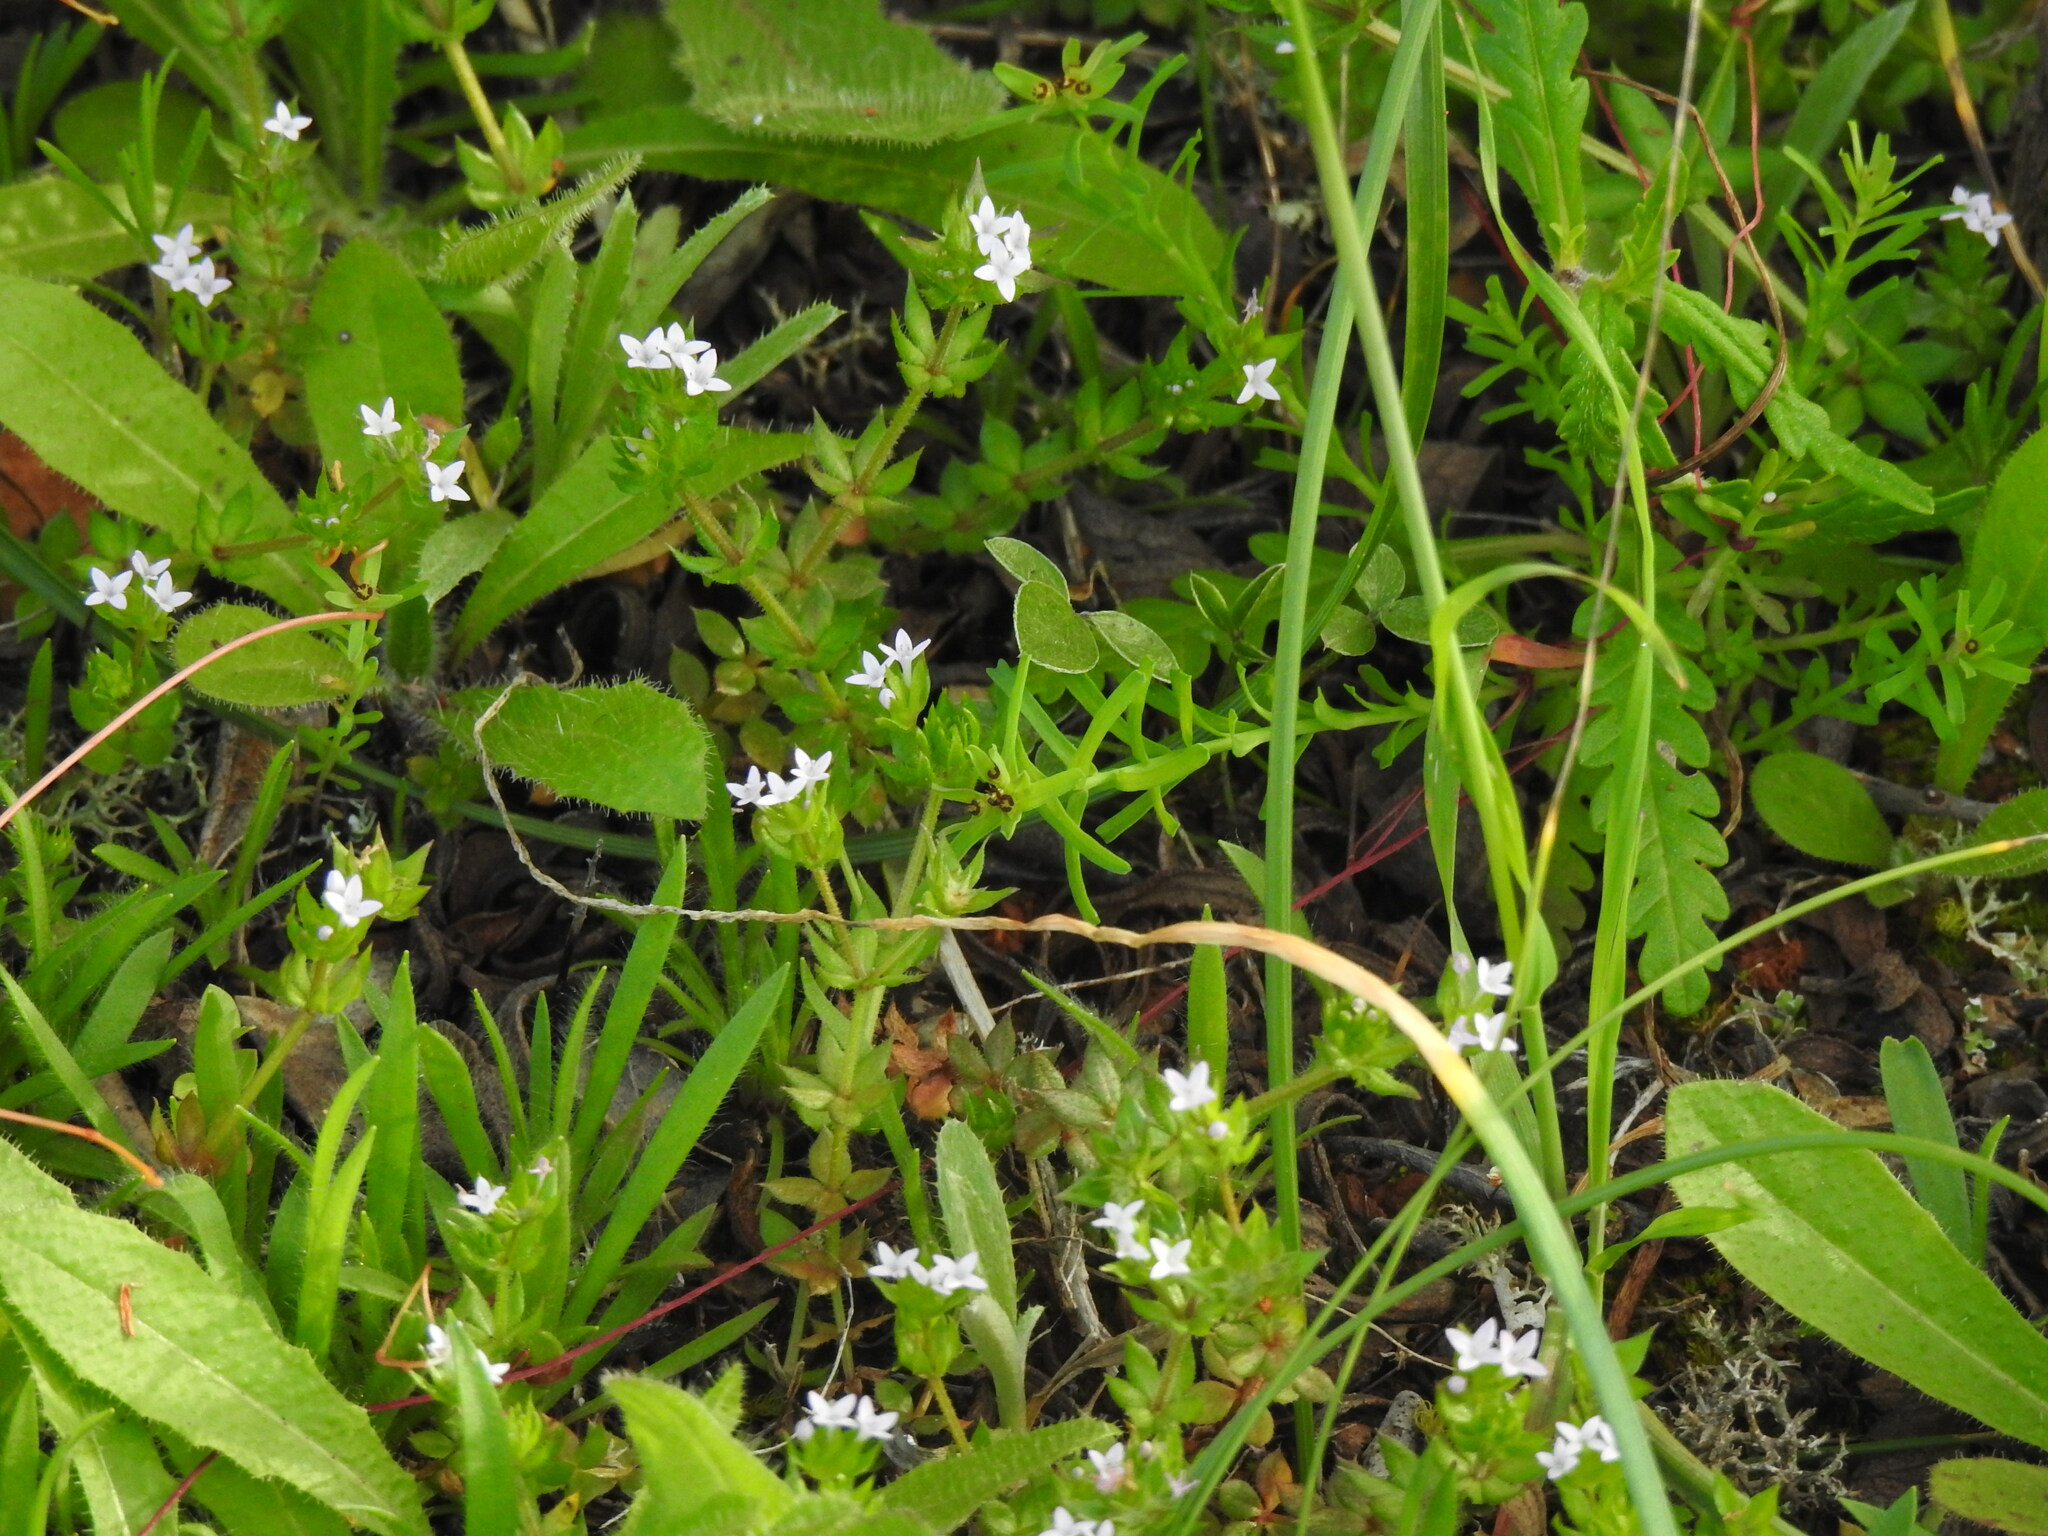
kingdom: Plantae
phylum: Tracheophyta
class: Magnoliopsida
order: Gentianales
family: Rubiaceae
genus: Sherardia
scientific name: Sherardia arvensis
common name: Field madder
